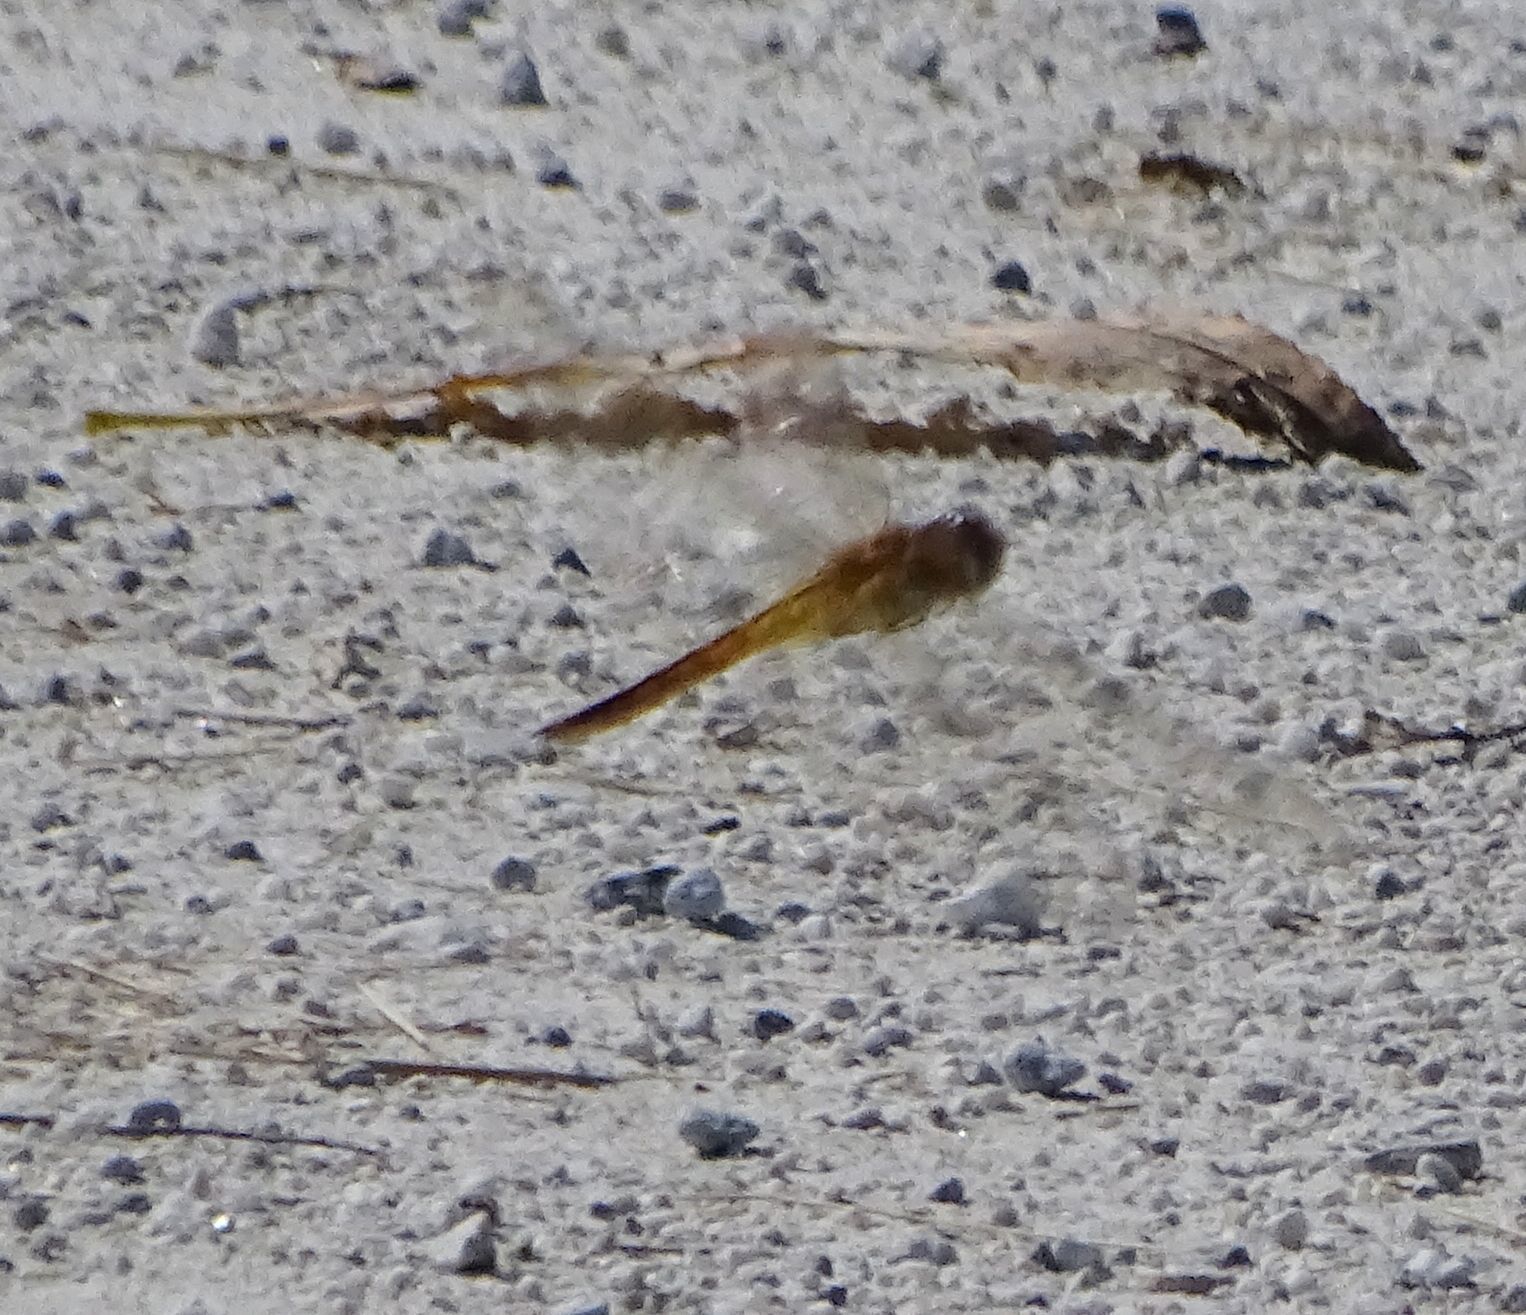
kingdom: Animalia
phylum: Arthropoda
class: Insecta
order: Odonata
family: Libellulidae
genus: Pantala
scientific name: Pantala flavescens
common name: Wandering glider
